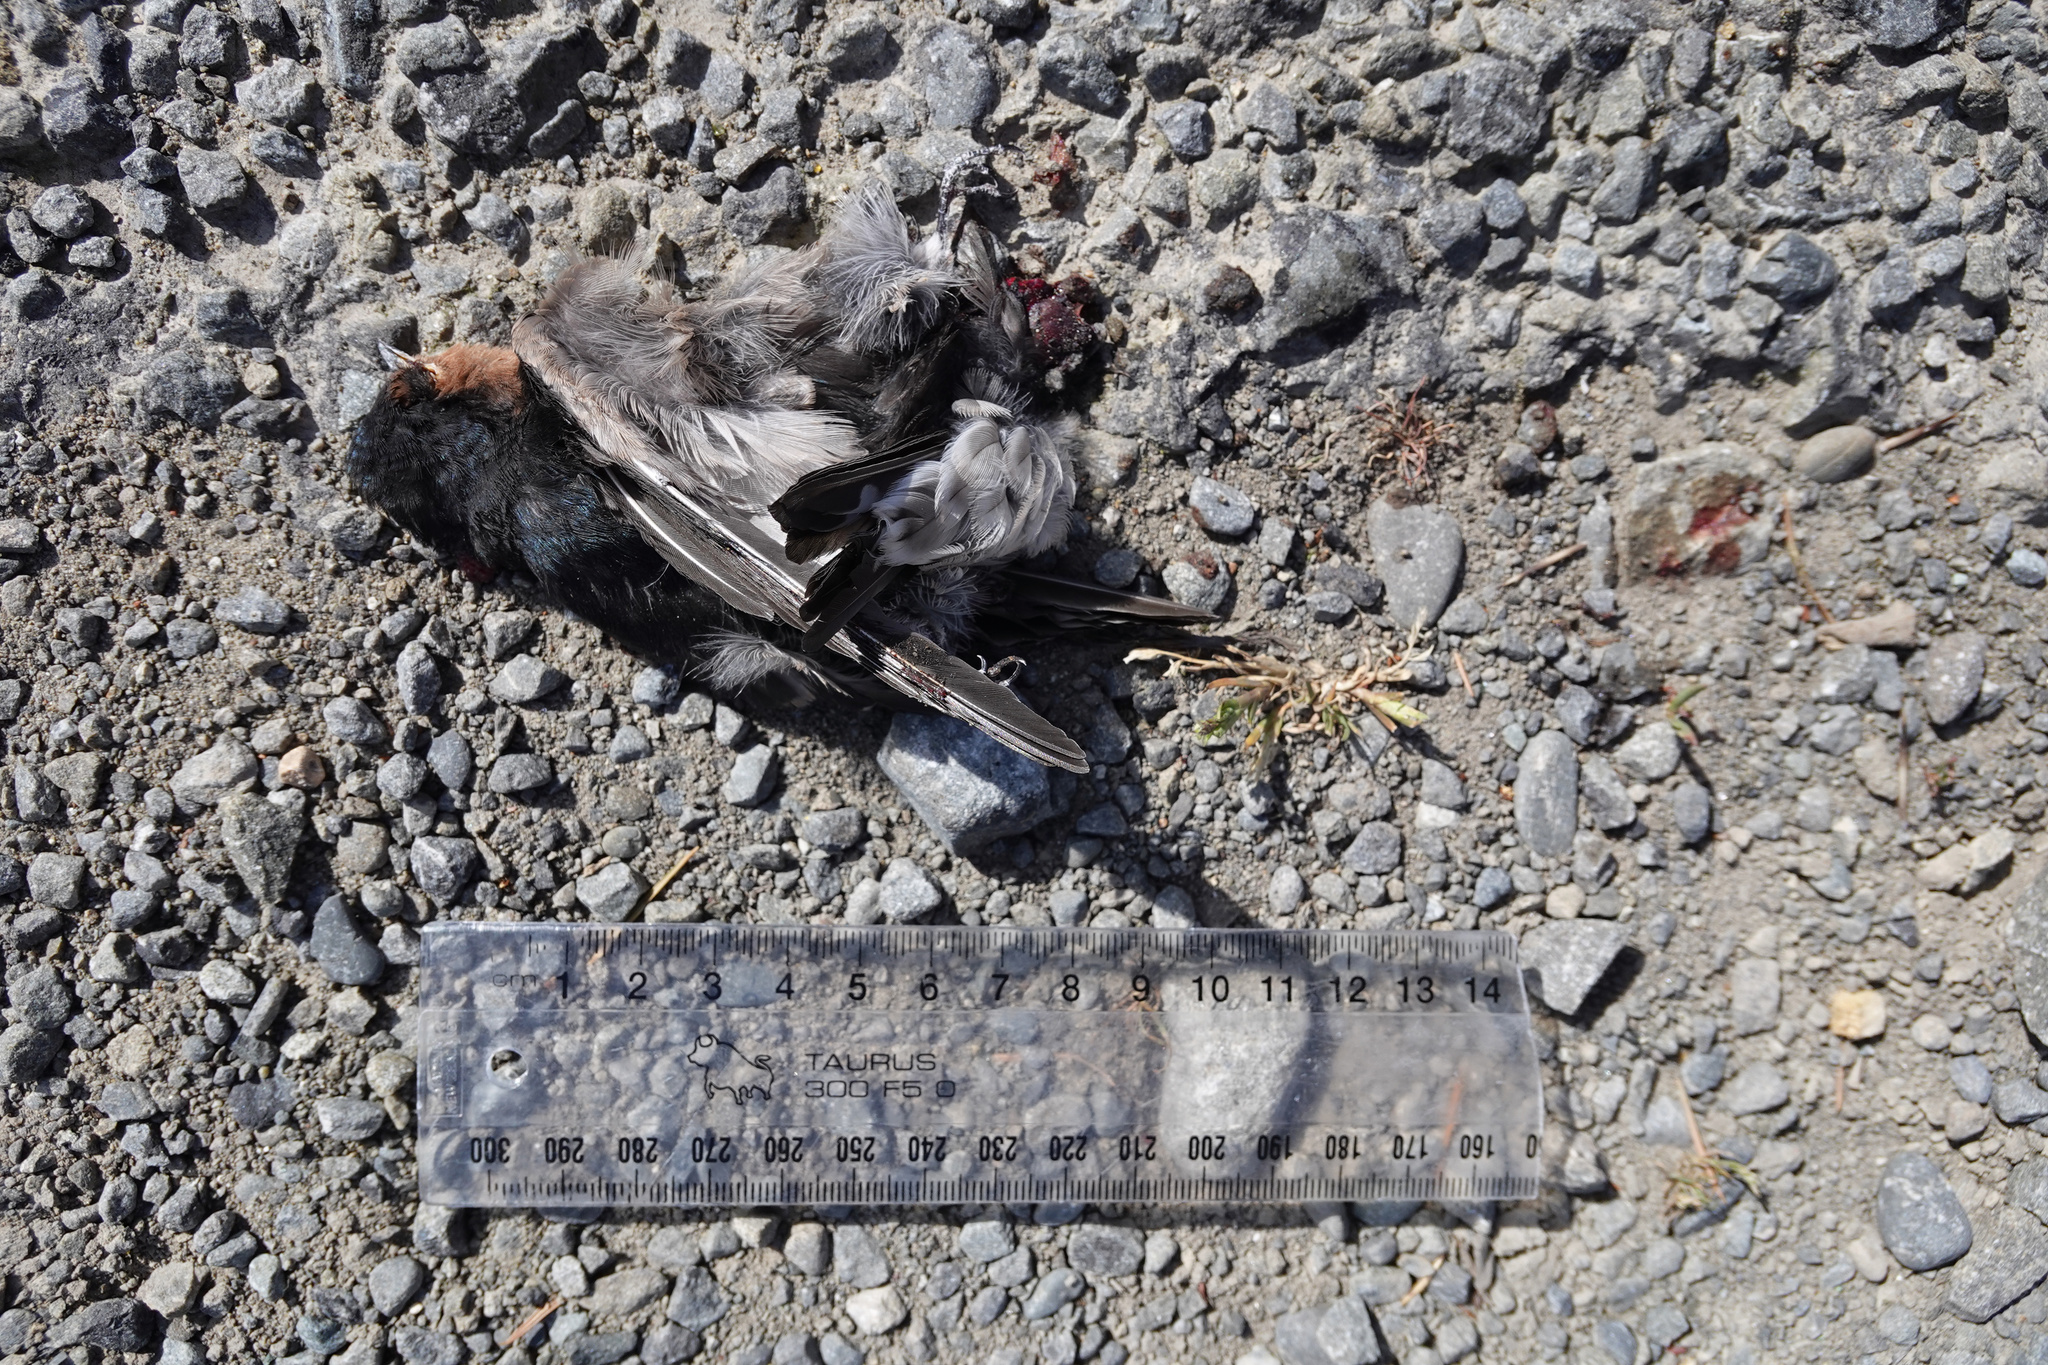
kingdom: Animalia
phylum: Chordata
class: Aves
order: Passeriformes
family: Hirundinidae
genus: Hirundo
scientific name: Hirundo neoxena
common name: Welcome swallow
